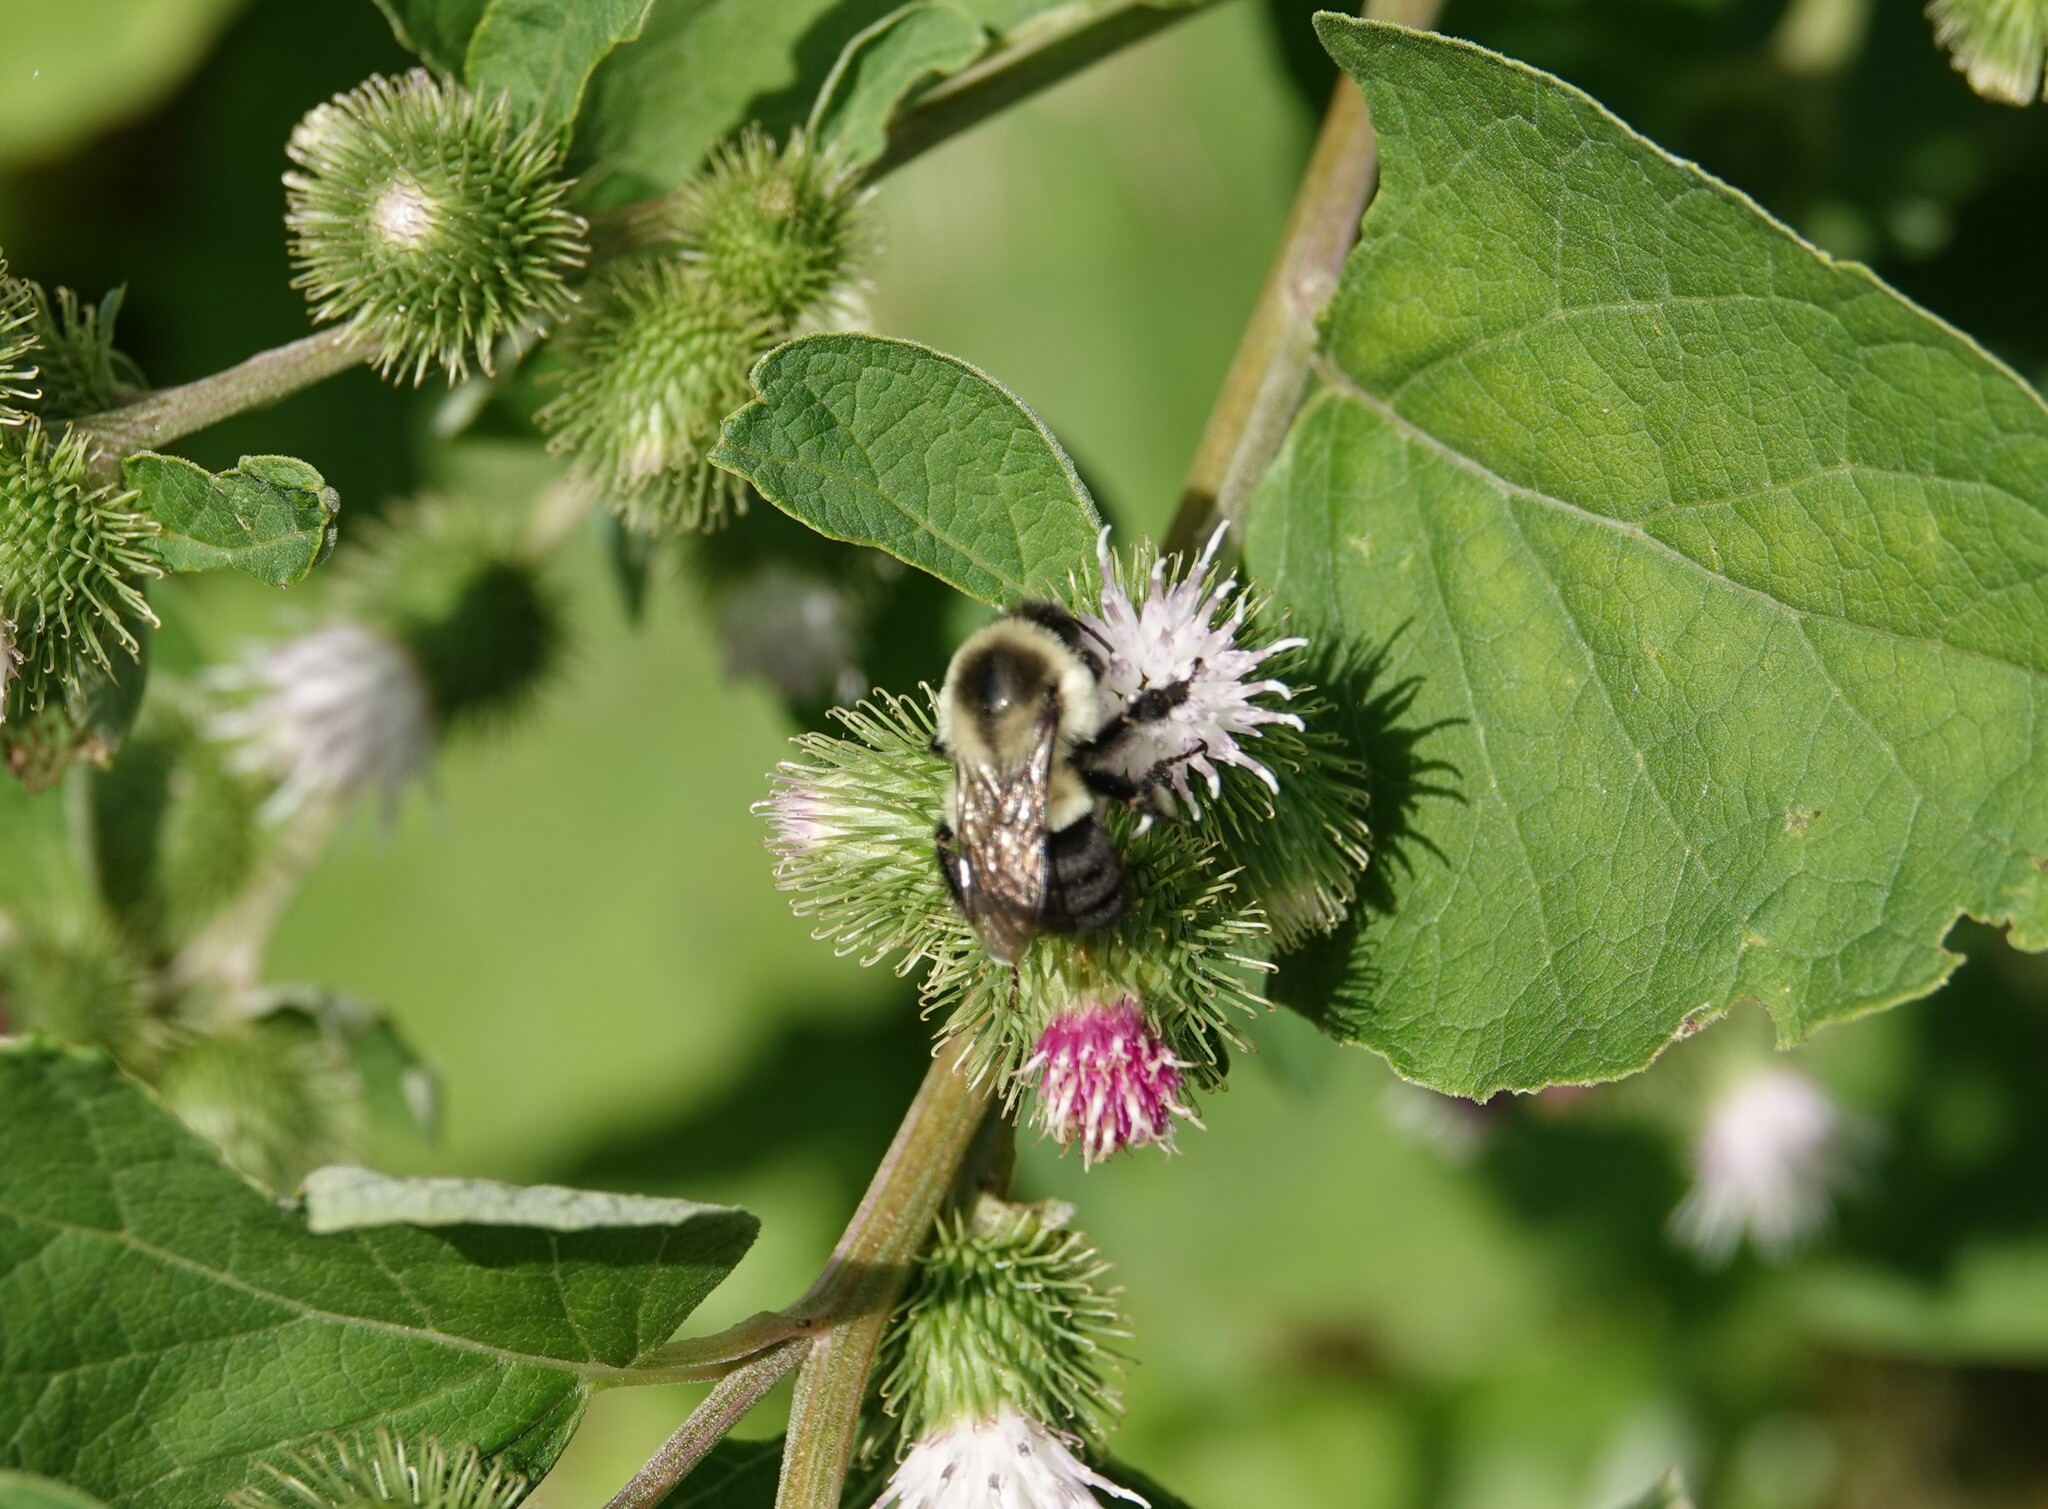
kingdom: Animalia
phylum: Arthropoda
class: Insecta
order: Hymenoptera
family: Apidae
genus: Bombus
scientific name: Bombus impatiens
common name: Common eastern bumble bee
